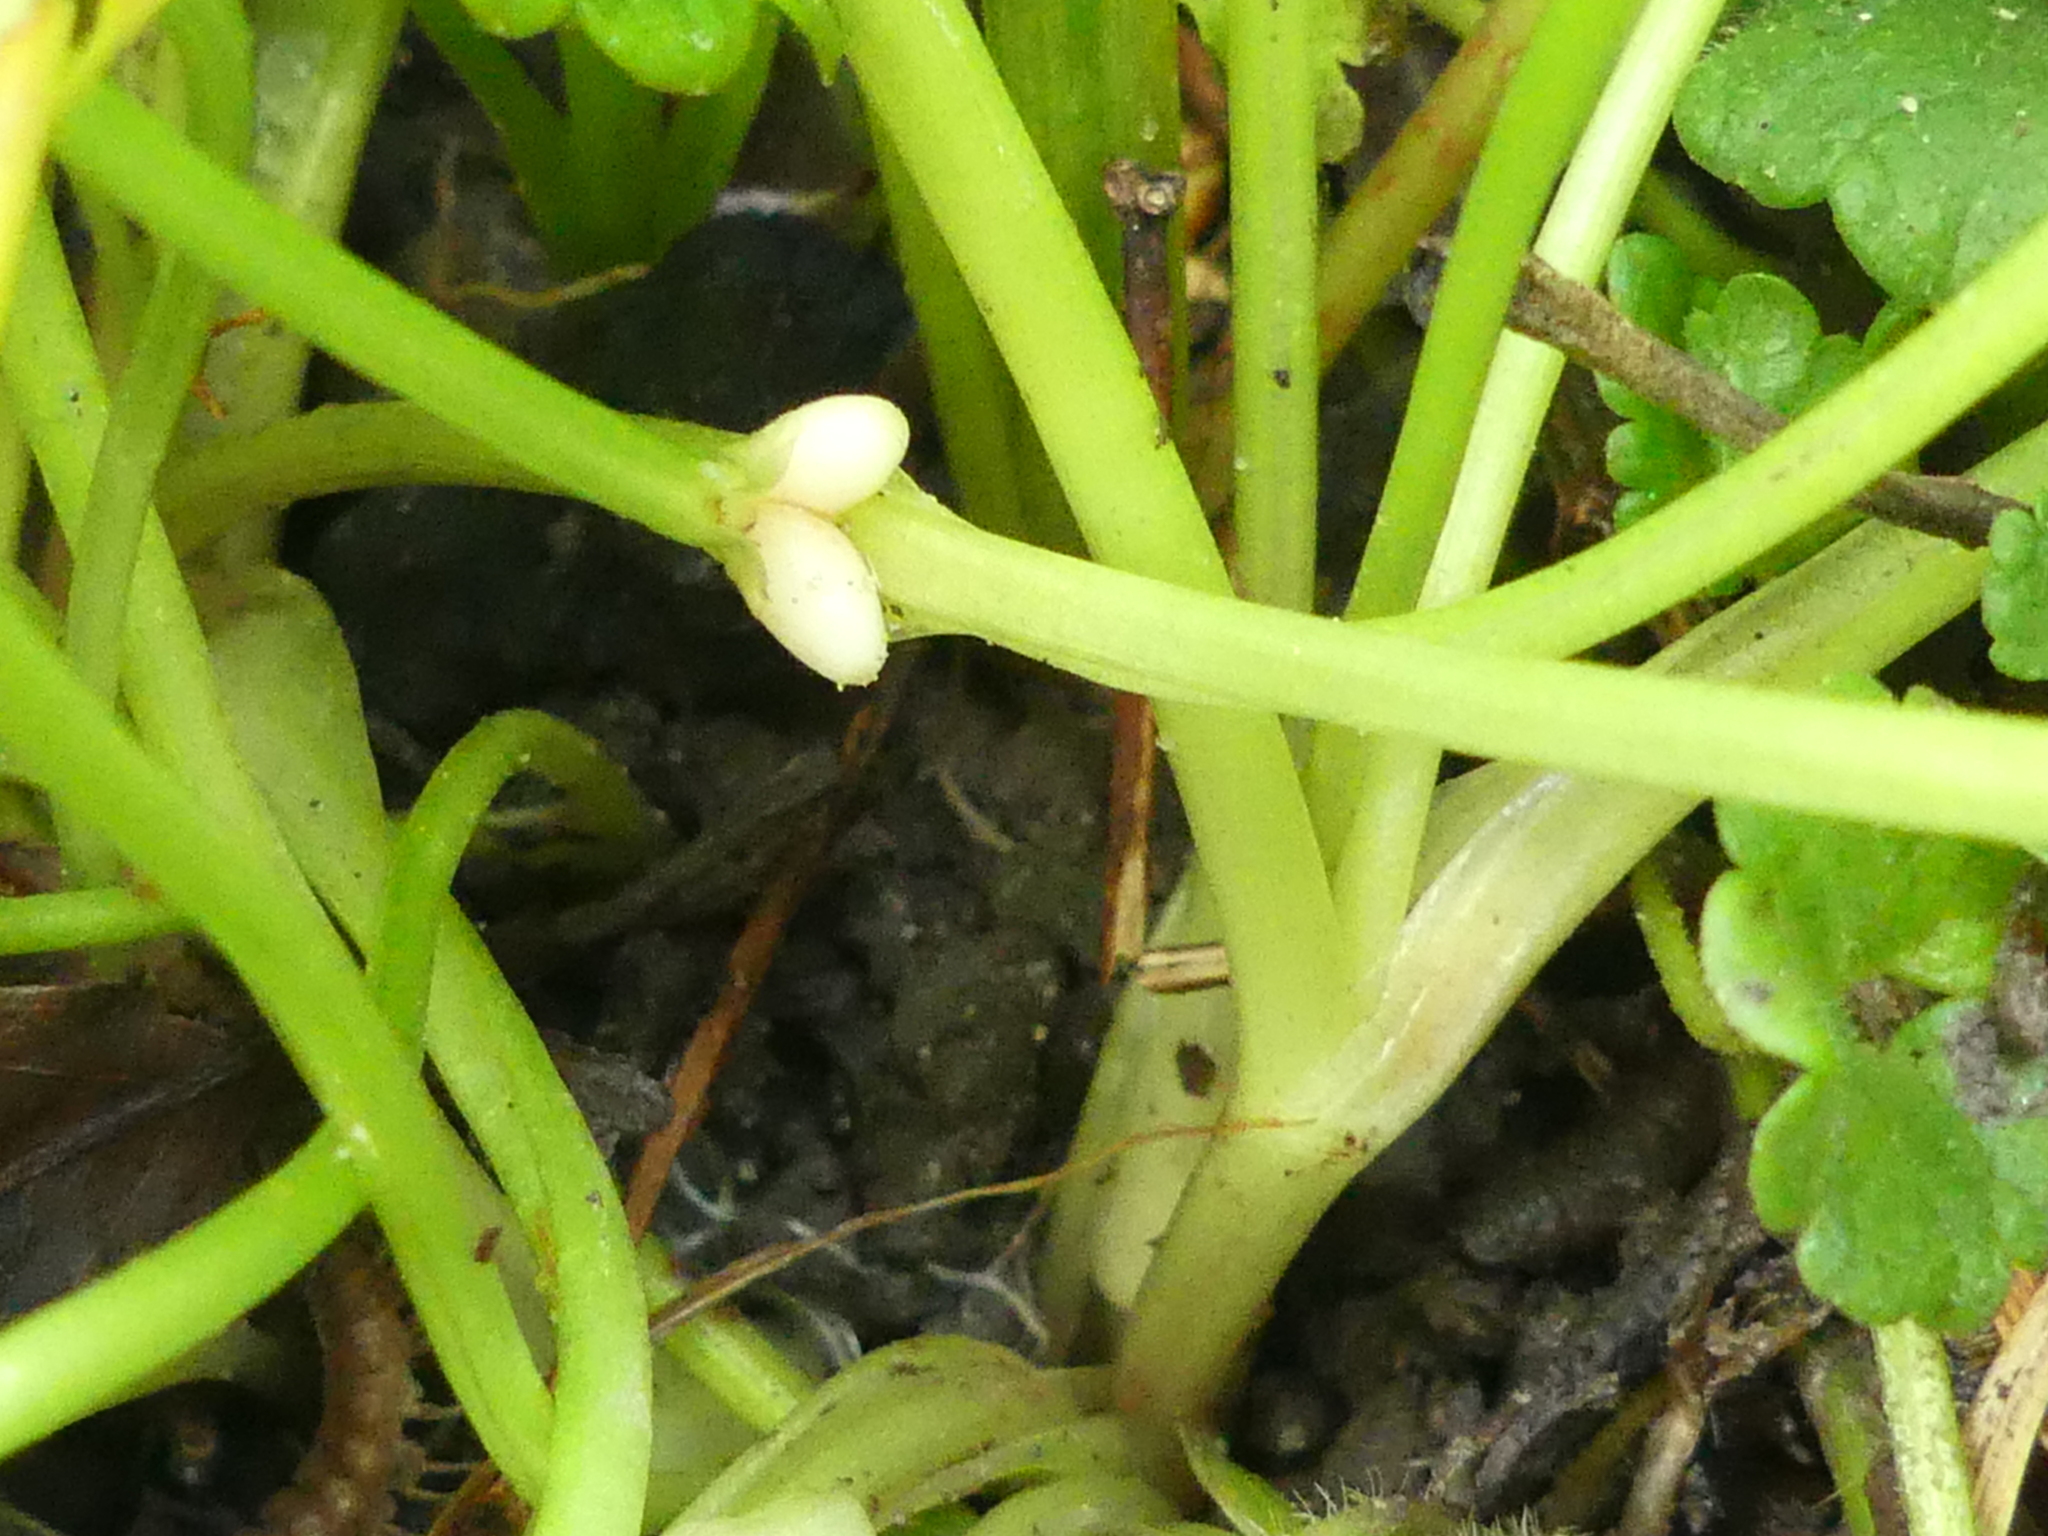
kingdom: Plantae
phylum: Tracheophyta
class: Magnoliopsida
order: Ranunculales
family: Ranunculaceae
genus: Ficaria
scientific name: Ficaria verna
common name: Lesser celandine
